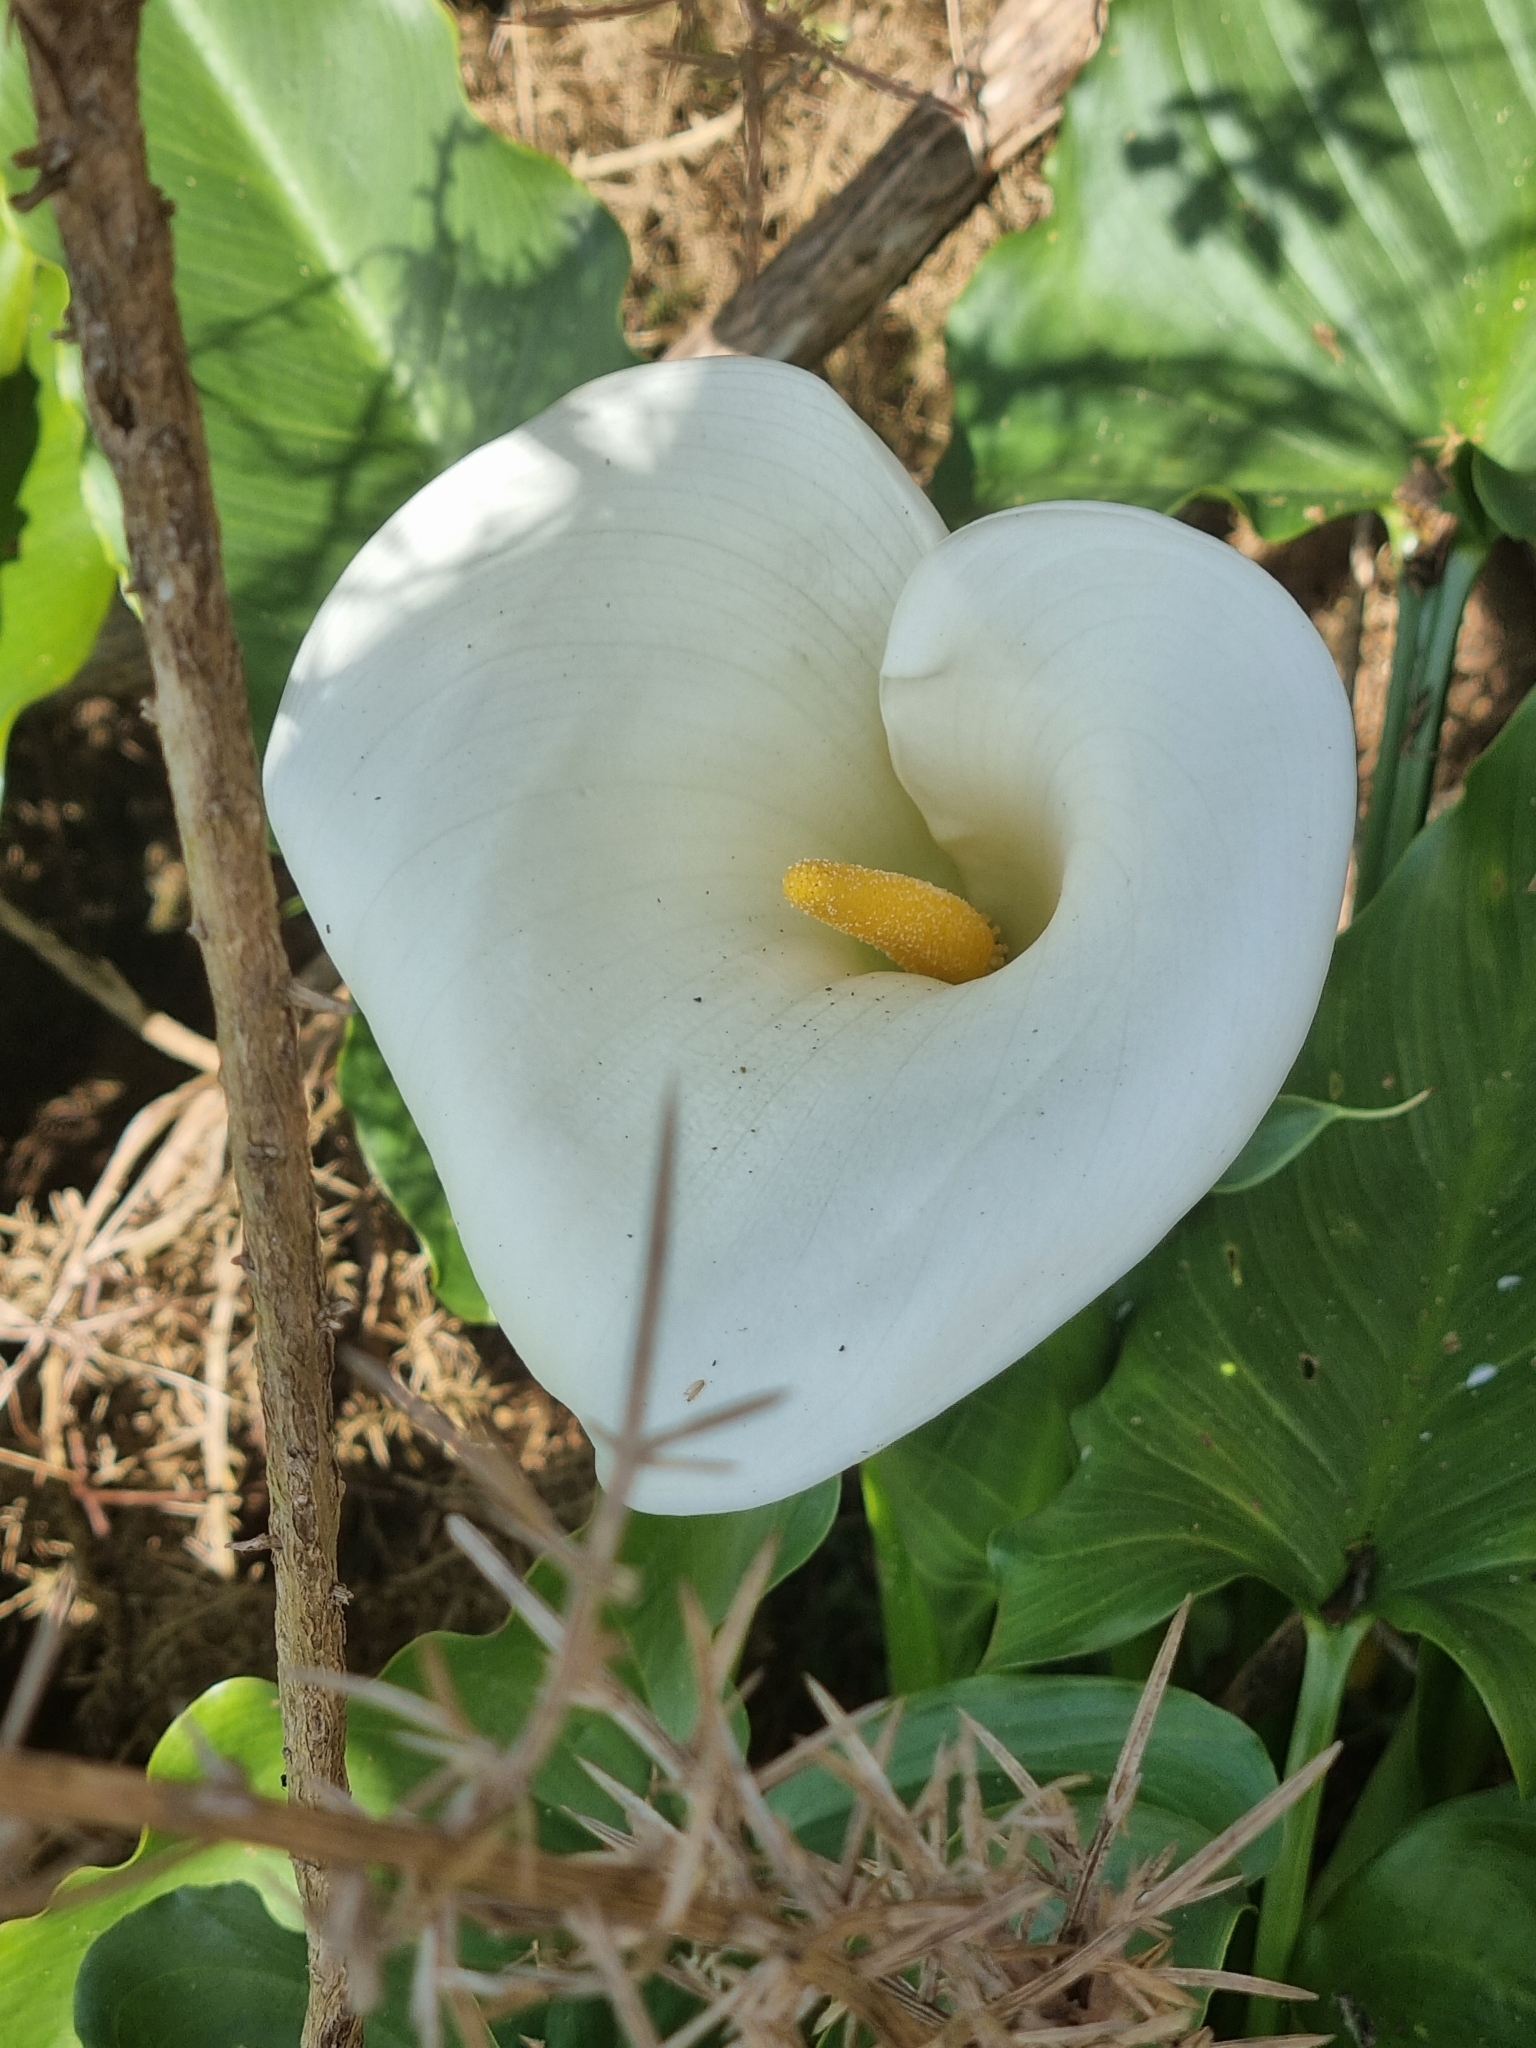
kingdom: Plantae
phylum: Tracheophyta
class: Liliopsida
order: Alismatales
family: Araceae
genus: Zantedeschia
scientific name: Zantedeschia aethiopica
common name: Altar-lily
